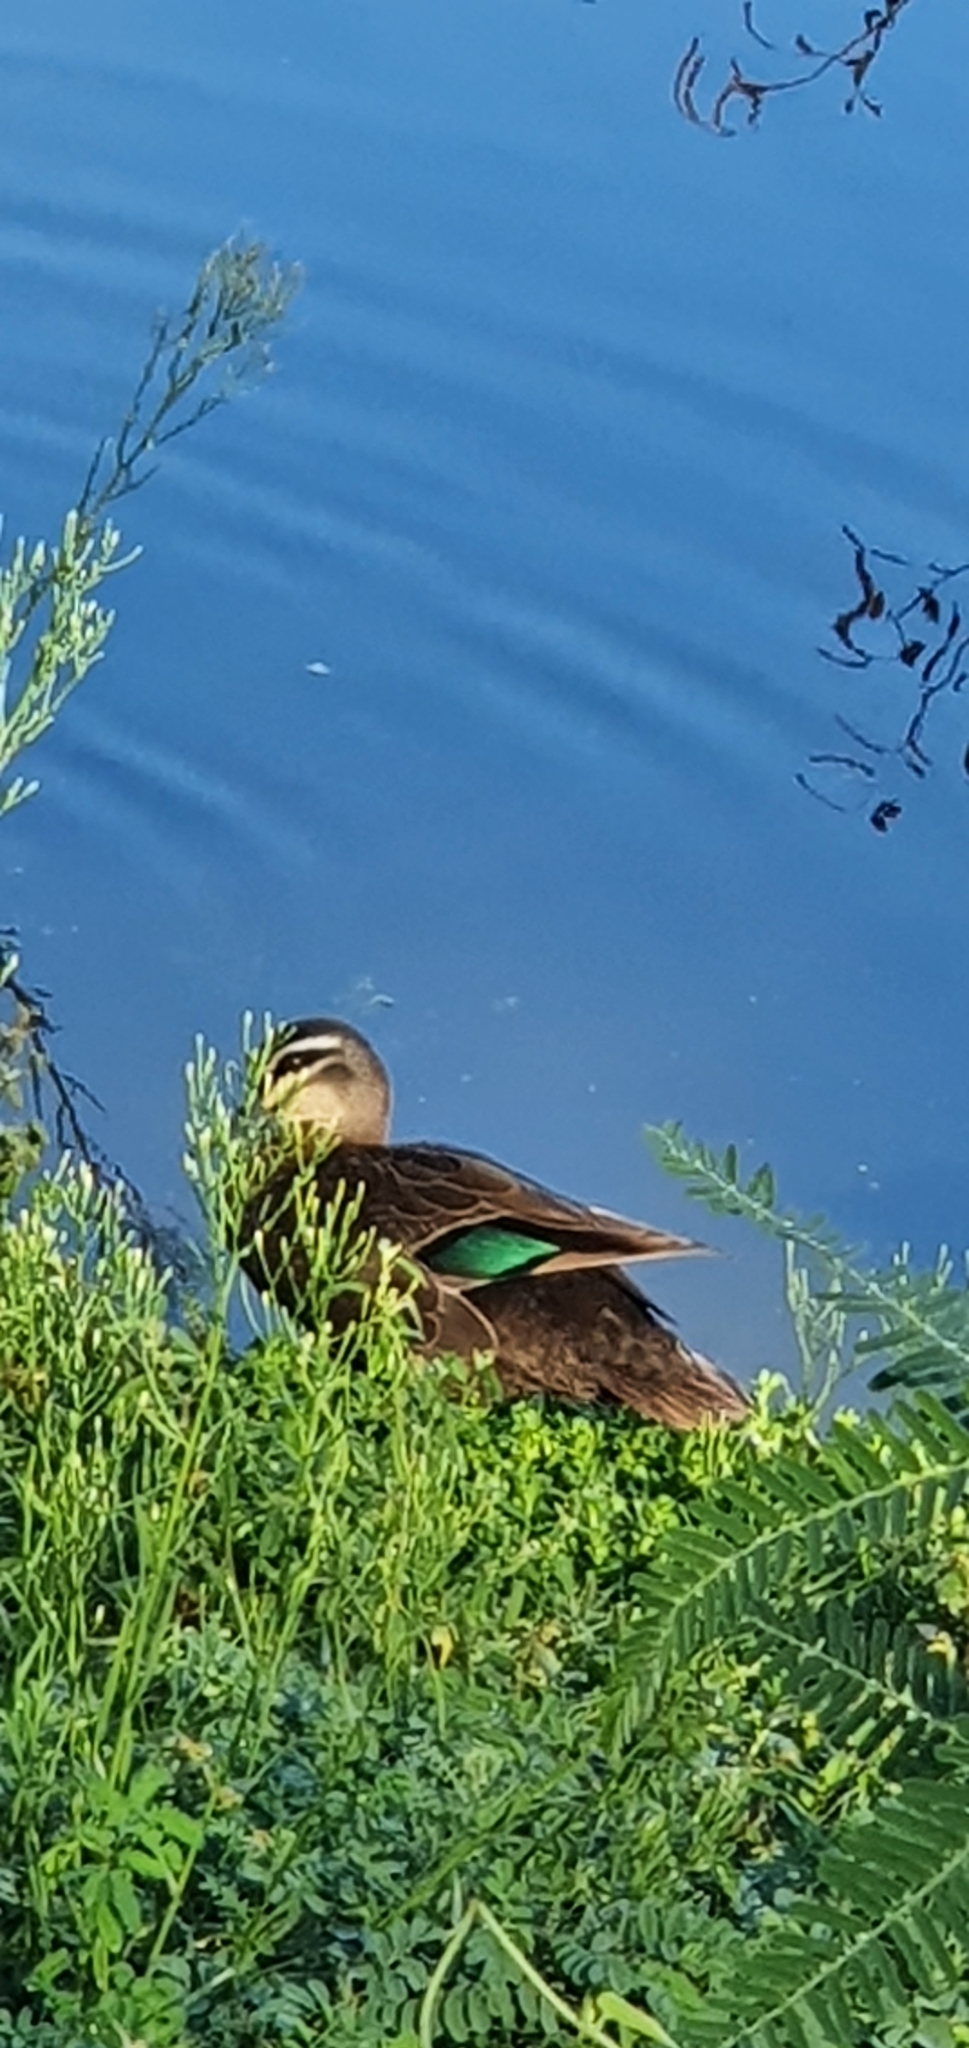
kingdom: Animalia
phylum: Chordata
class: Aves
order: Anseriformes
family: Anatidae
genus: Anas
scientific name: Anas superciliosa
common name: Pacific black duck
